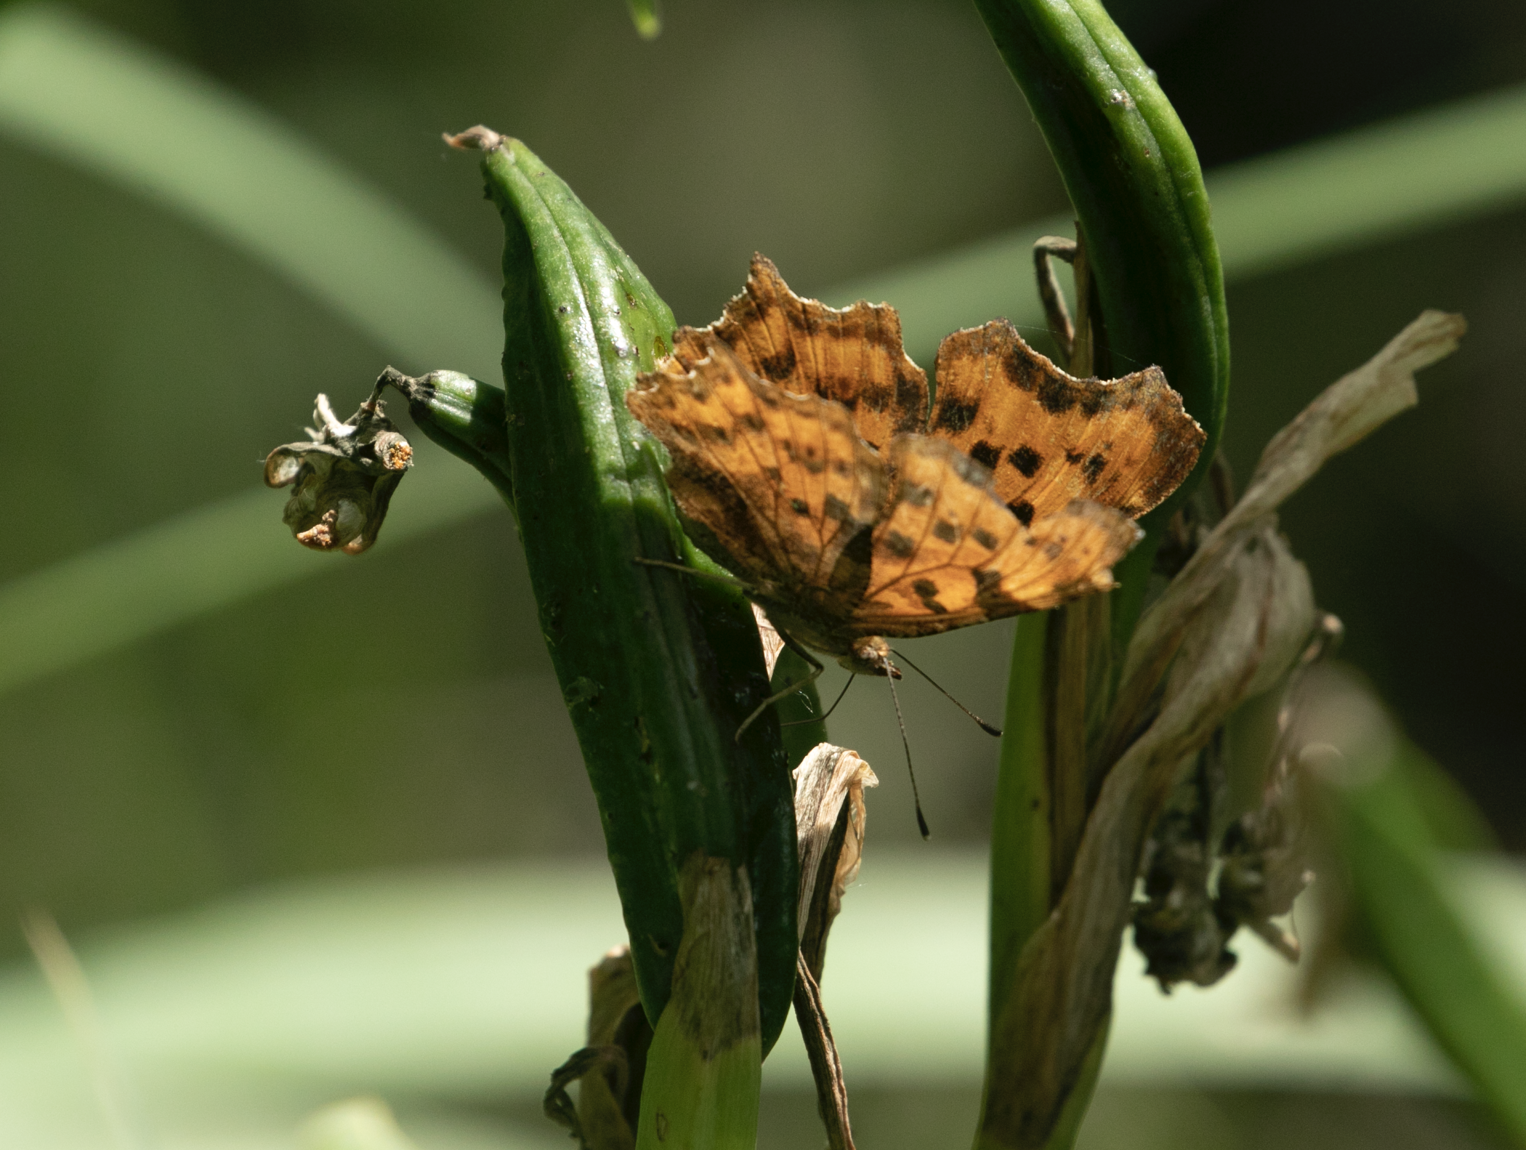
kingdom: Animalia
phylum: Arthropoda
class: Insecta
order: Lepidoptera
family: Nymphalidae
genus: Polygonia
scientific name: Polygonia c-album
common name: Comma
